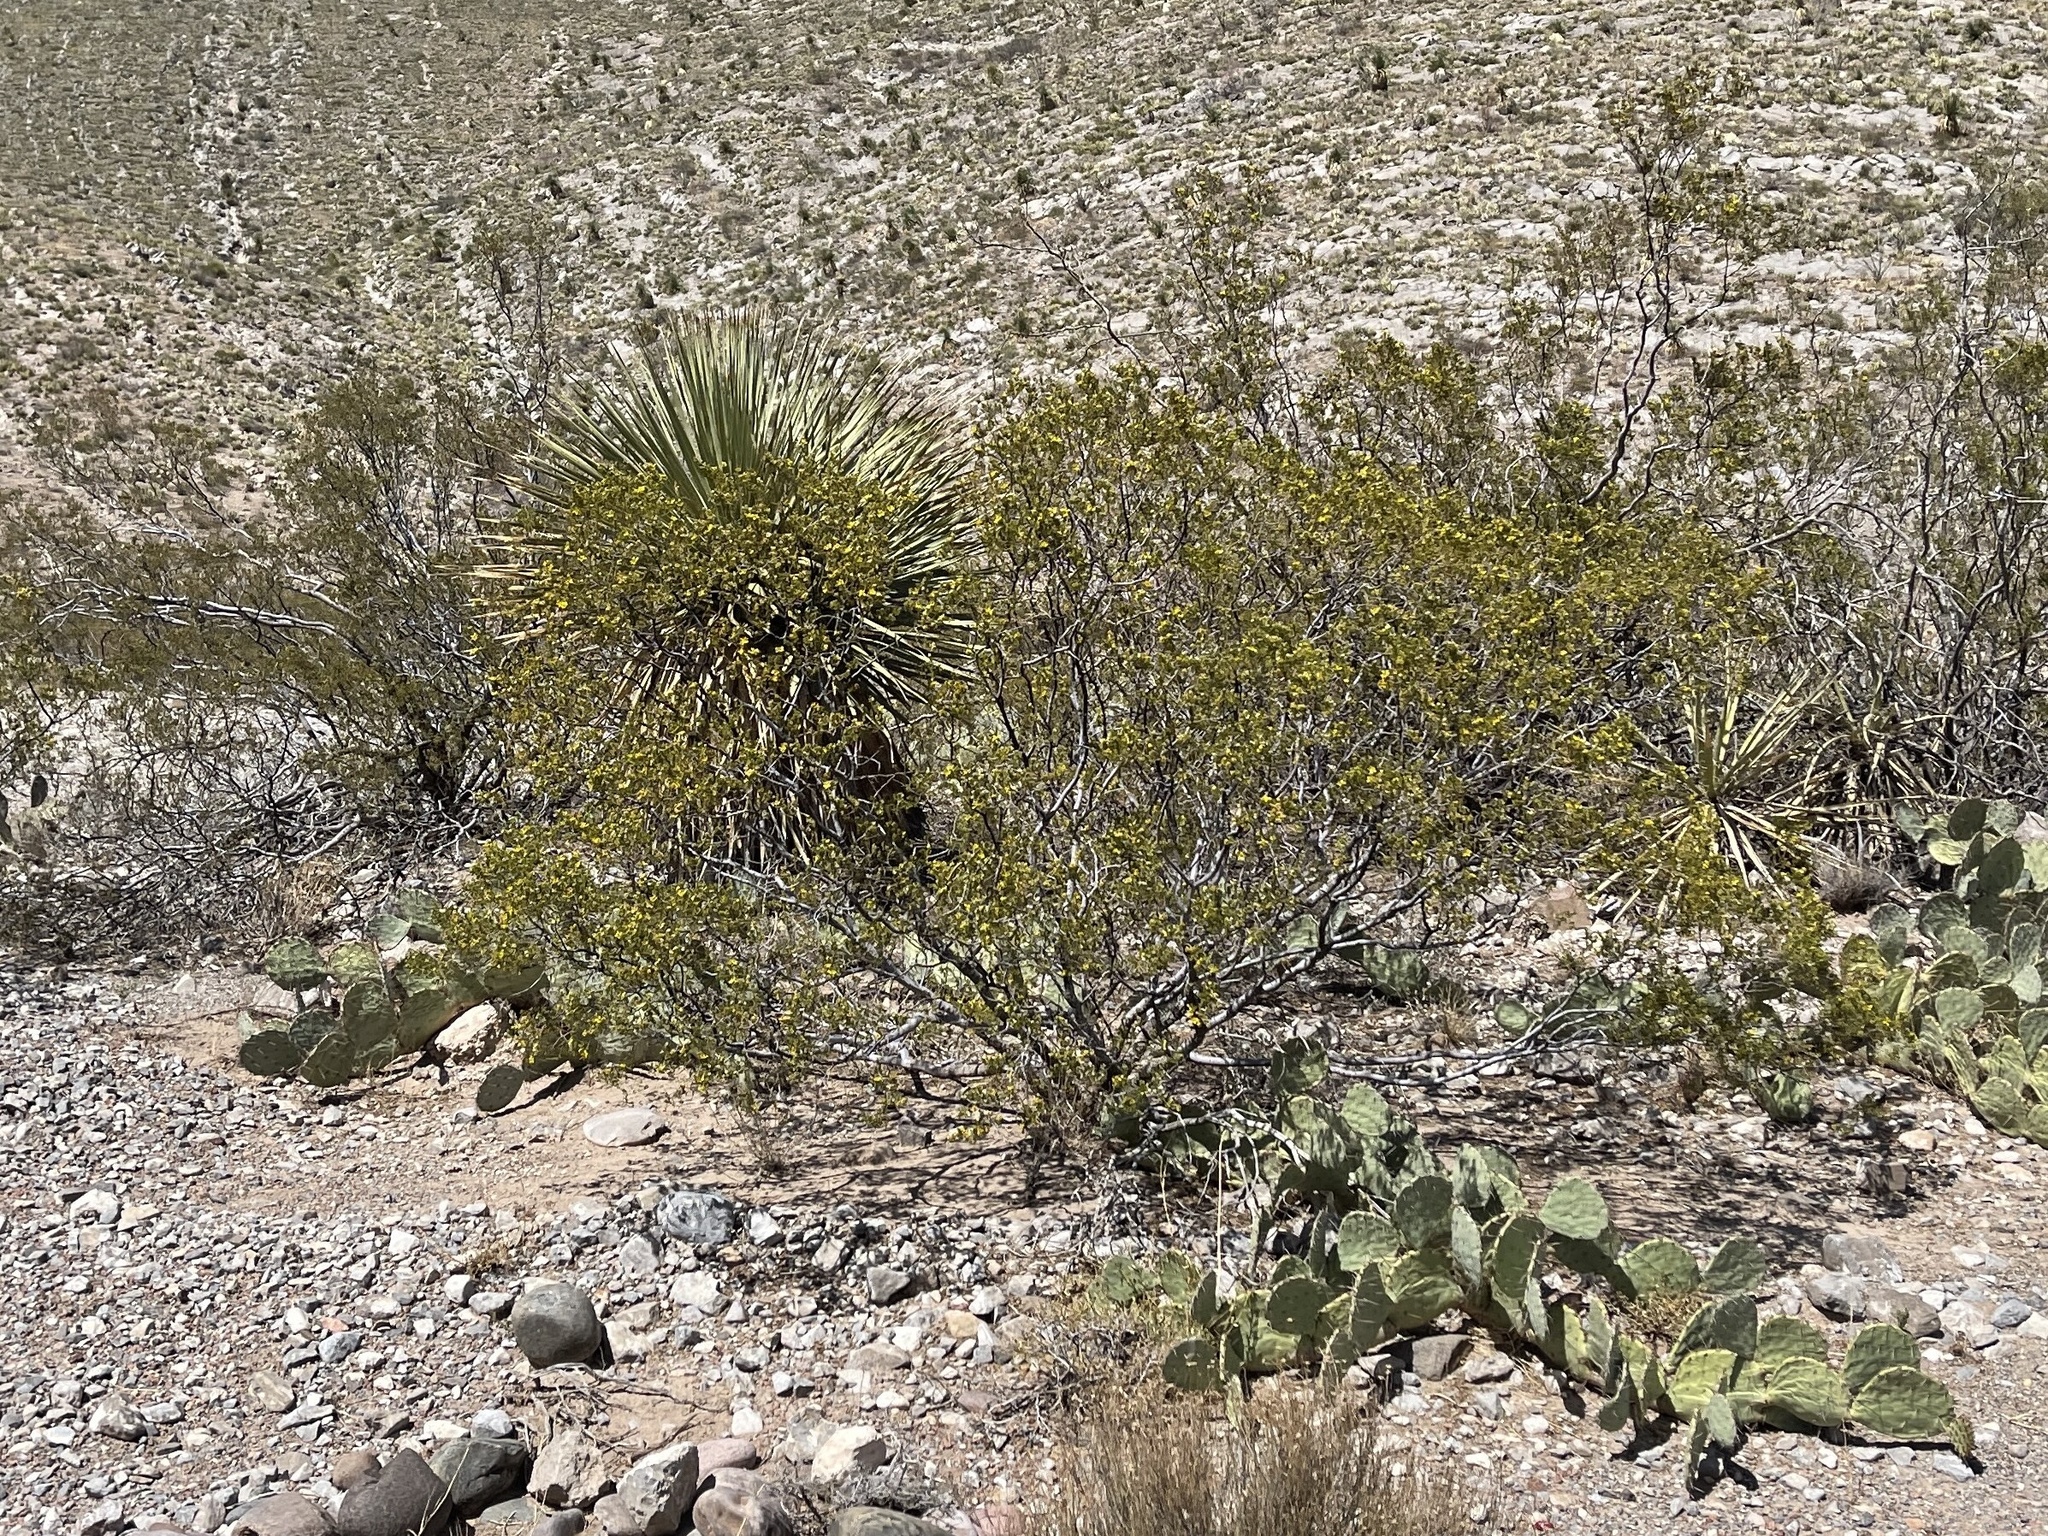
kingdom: Plantae
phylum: Tracheophyta
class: Magnoliopsida
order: Zygophyllales
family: Zygophyllaceae
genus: Larrea
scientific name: Larrea tridentata
